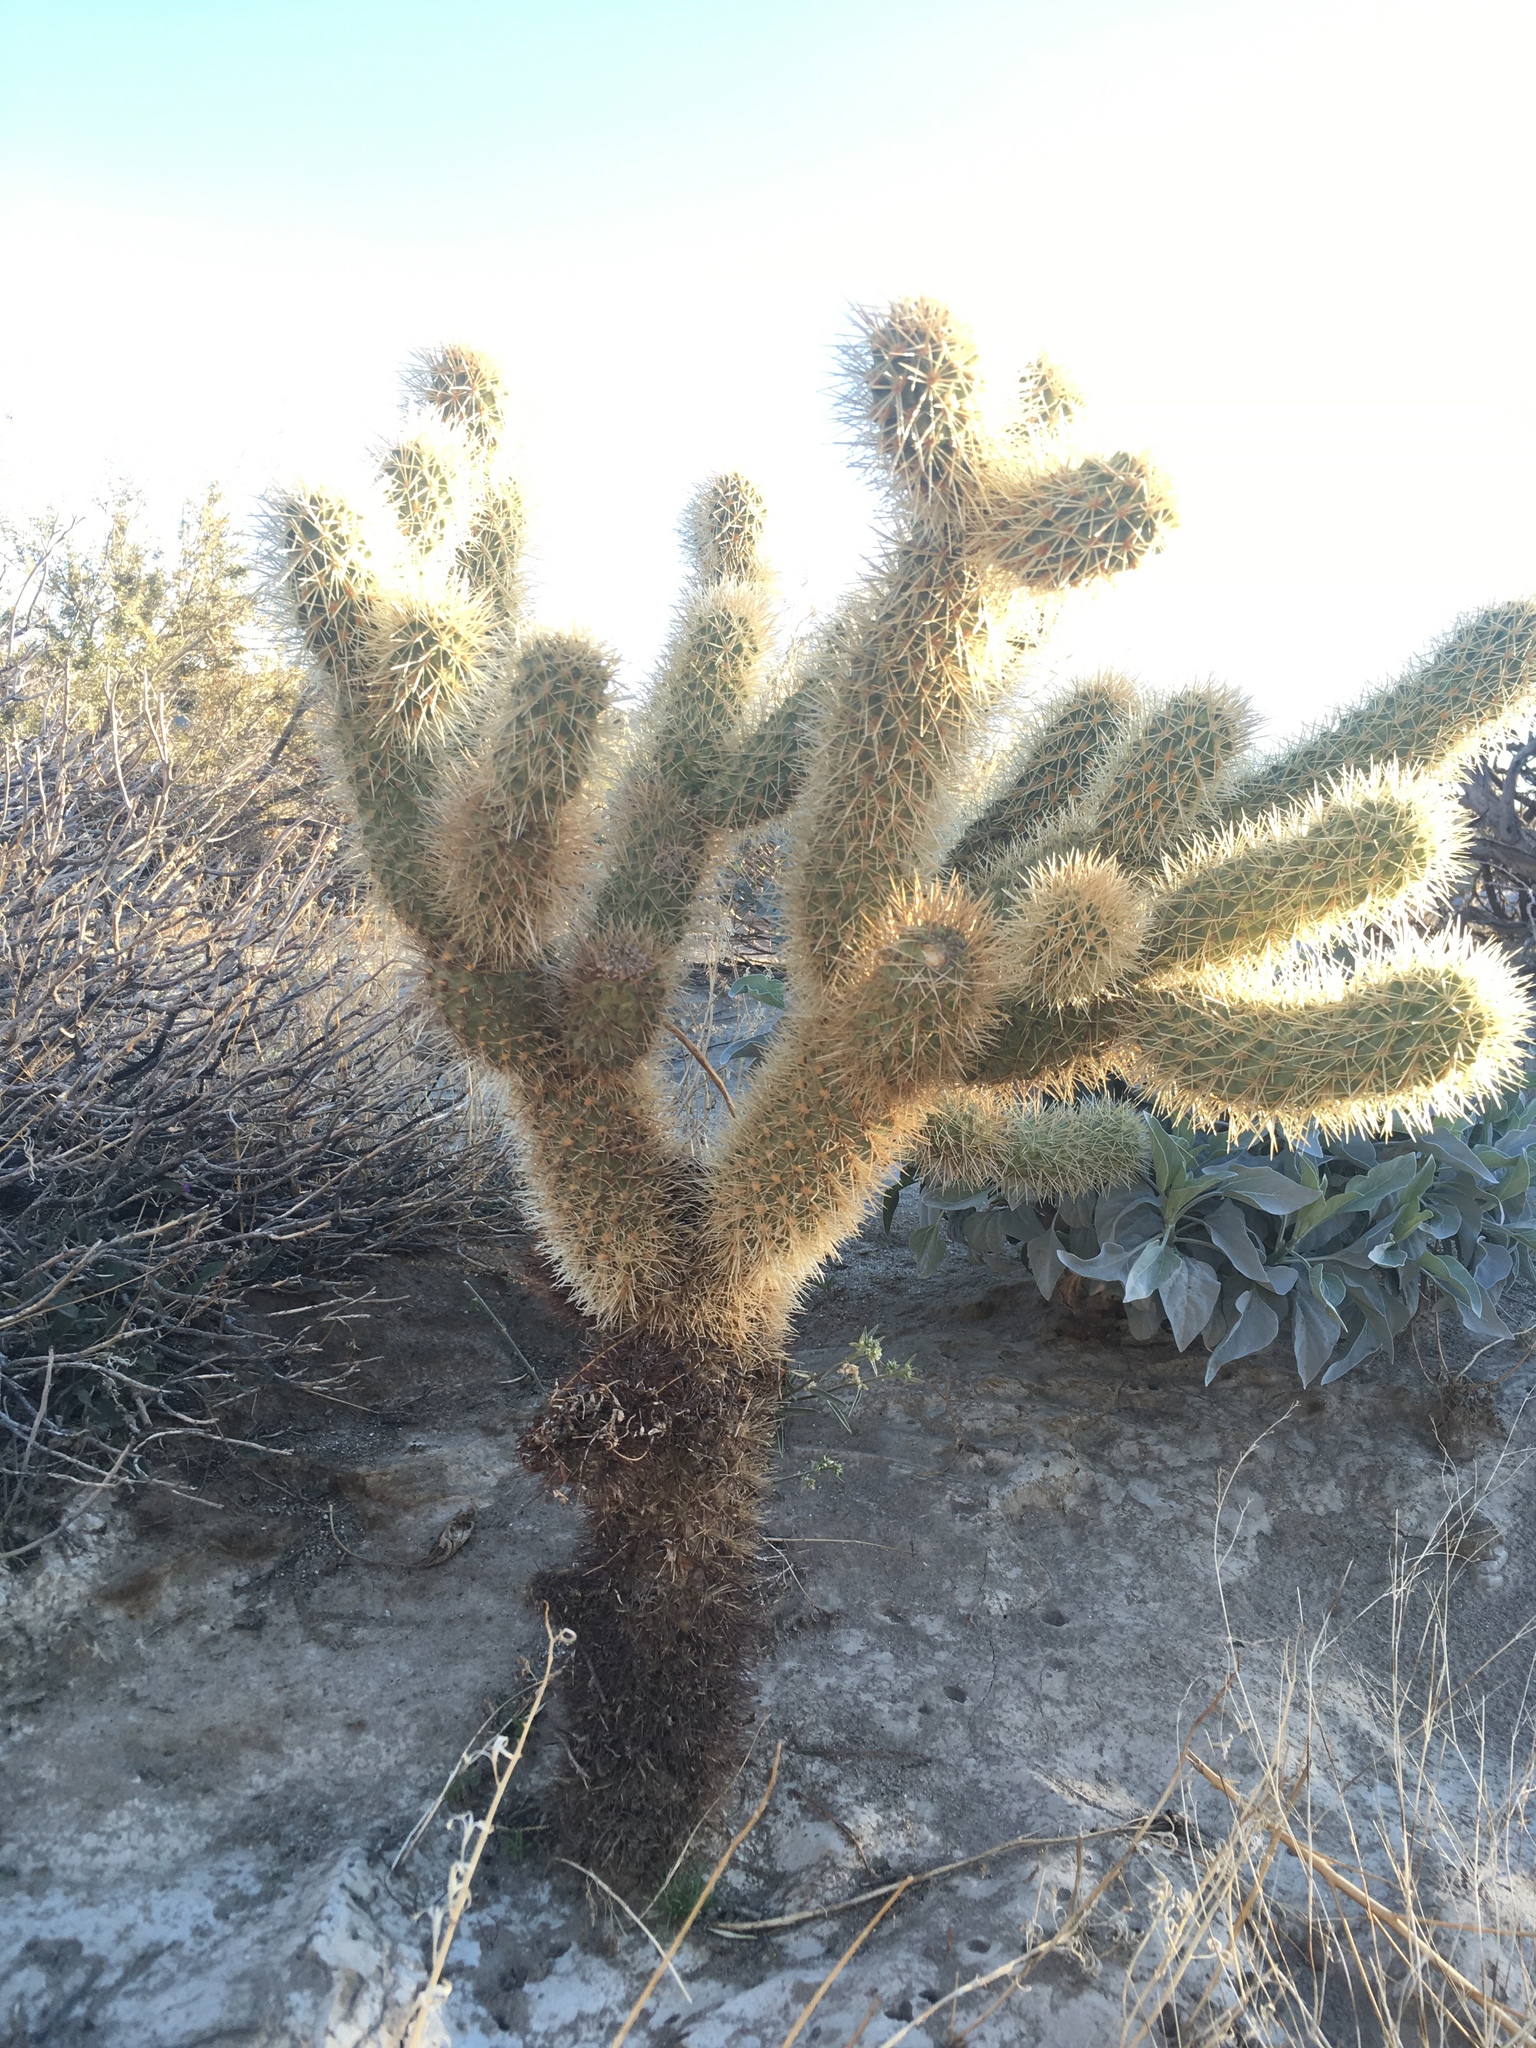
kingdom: Plantae
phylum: Tracheophyta
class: Magnoliopsida
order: Caryophyllales
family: Cactaceae
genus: Cylindropuntia
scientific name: Cylindropuntia fosbergii
